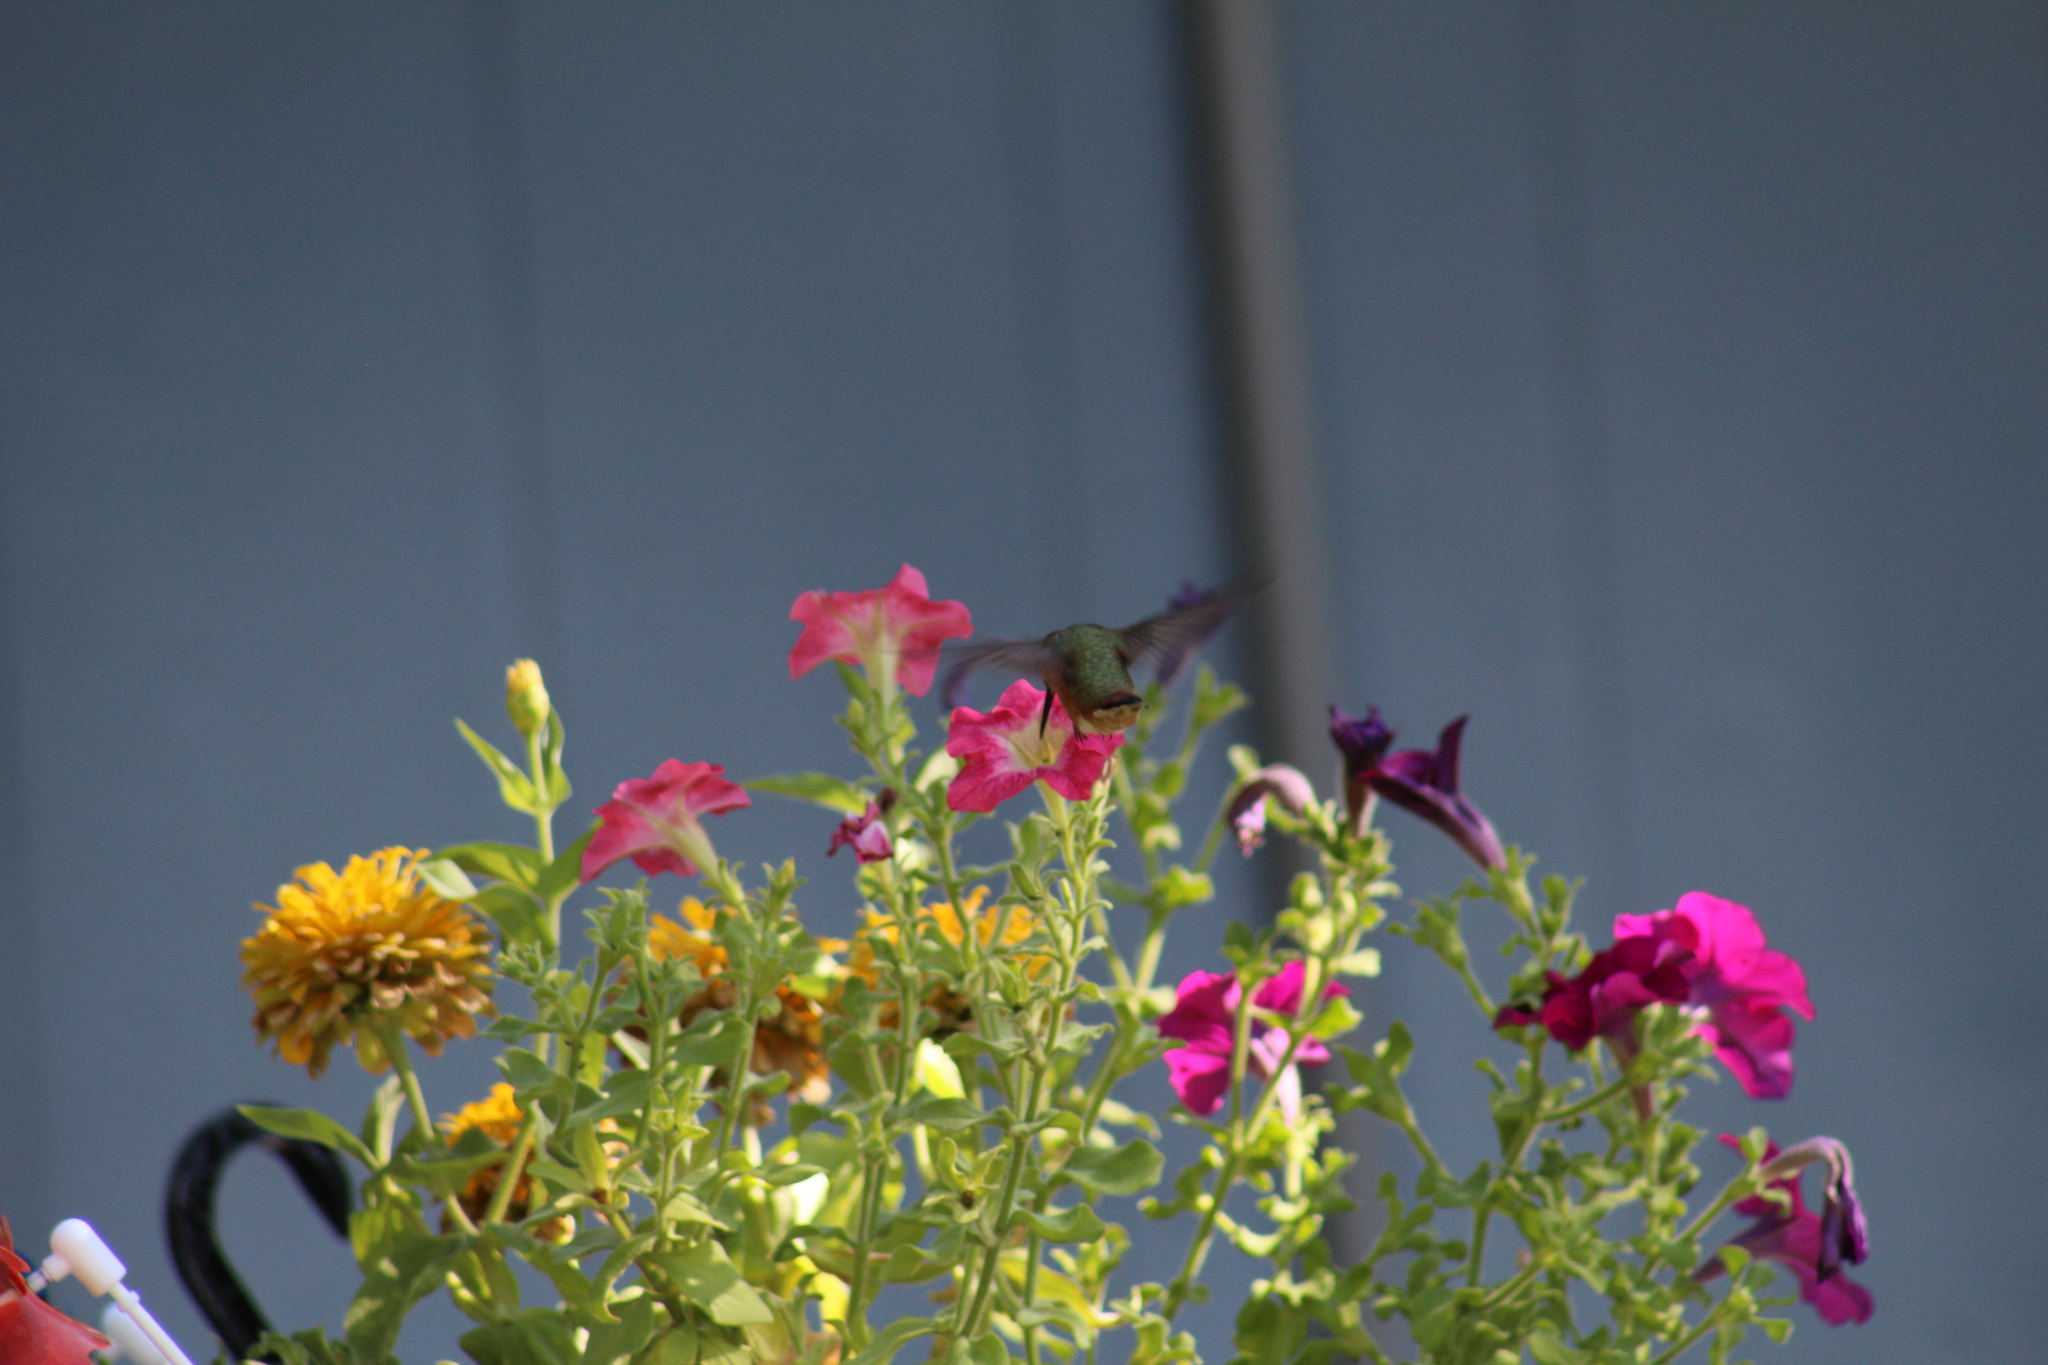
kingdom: Animalia
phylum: Chordata
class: Aves
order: Apodiformes
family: Trochilidae
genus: Selasphorus
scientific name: Selasphorus rufus
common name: Rufous hummingbird
